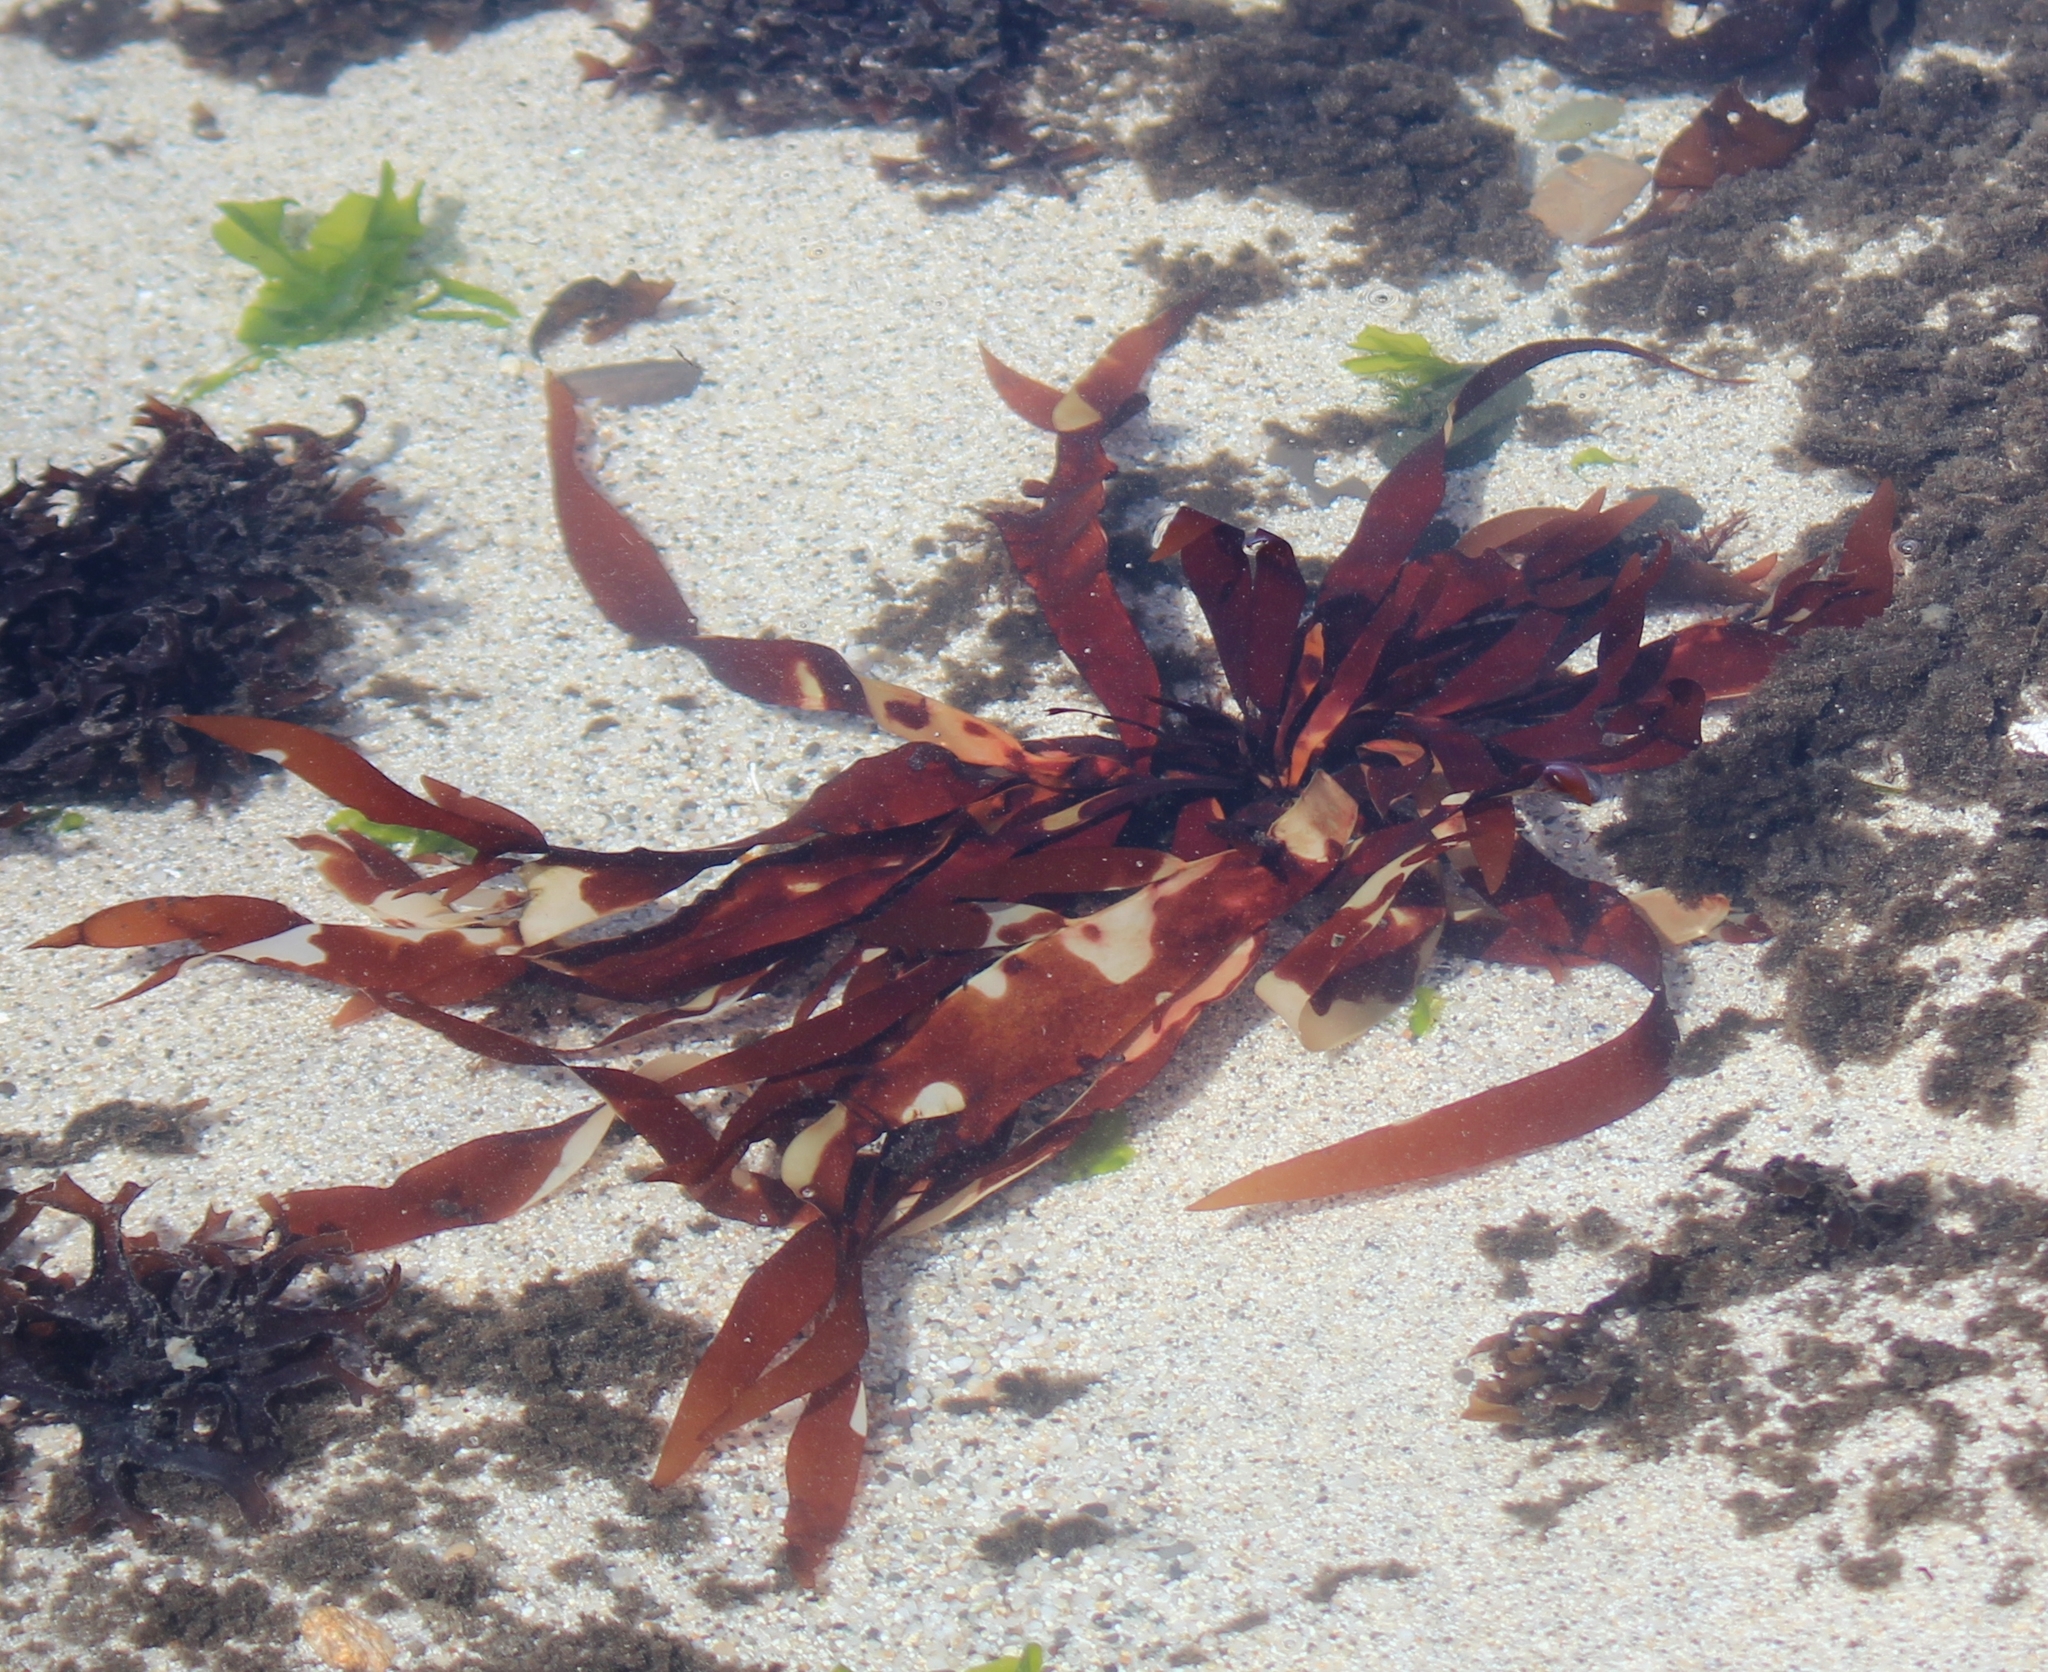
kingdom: Plantae
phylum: Rhodophyta
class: Florideophyceae
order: Halymeniales
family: Halymeniaceae
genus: Grateloupia
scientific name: Grateloupia Prionitis sternbergii
